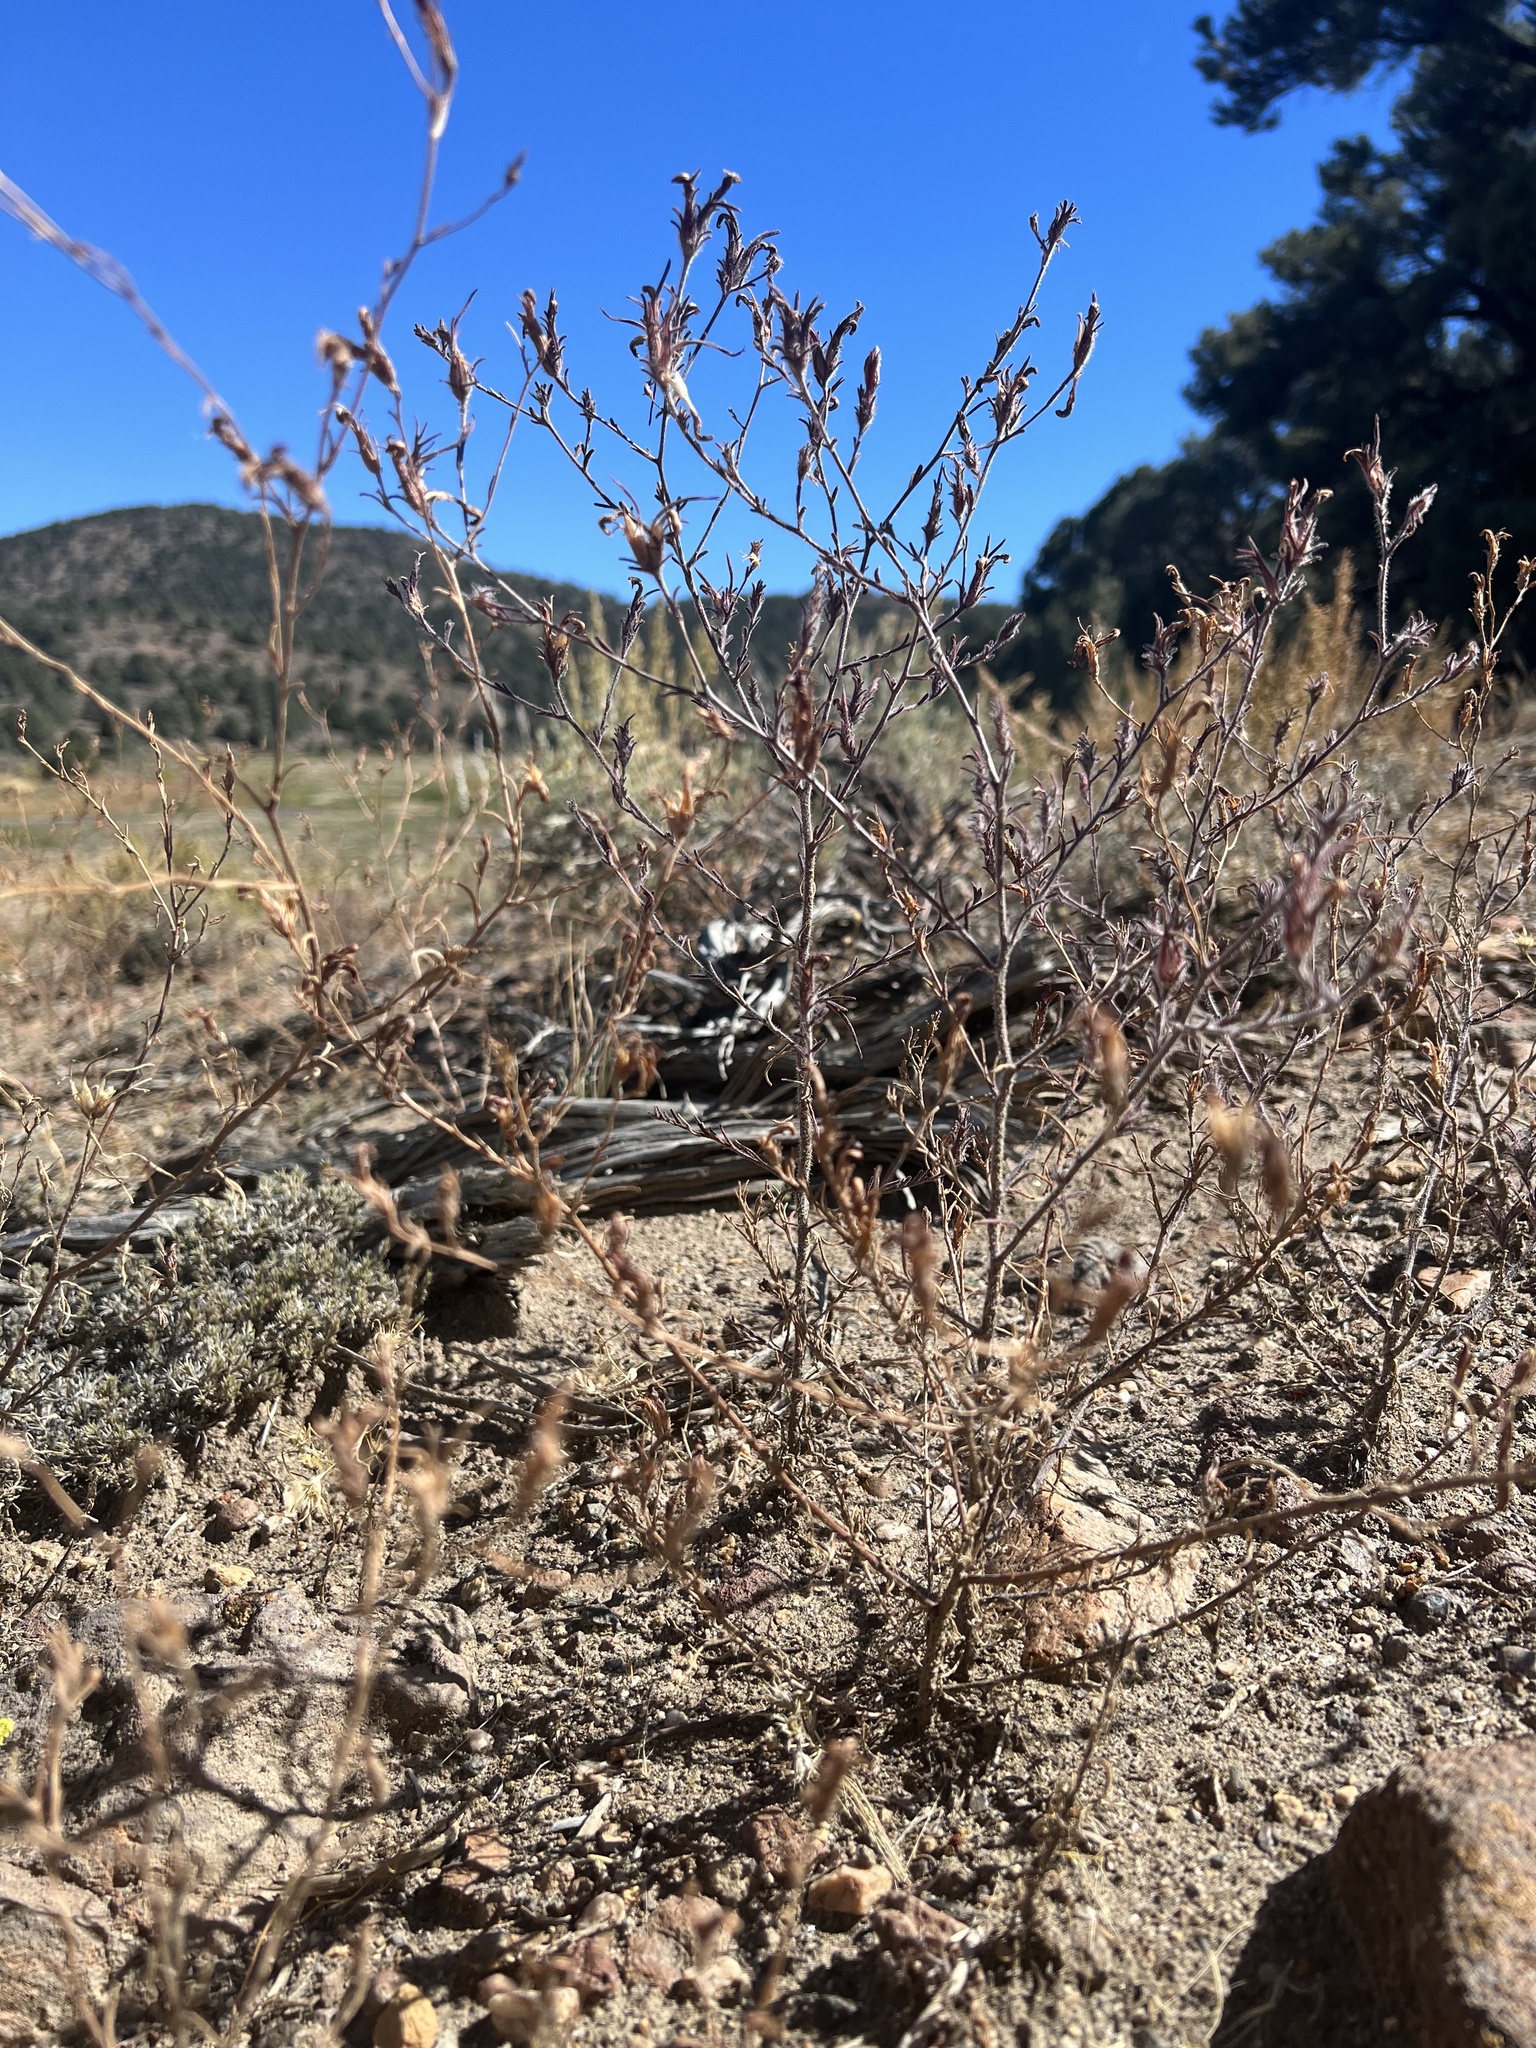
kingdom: Plantae
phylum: Tracheophyta
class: Magnoliopsida
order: Lamiales
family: Orobanchaceae
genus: Cordylanthus
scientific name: Cordylanthus kingii
